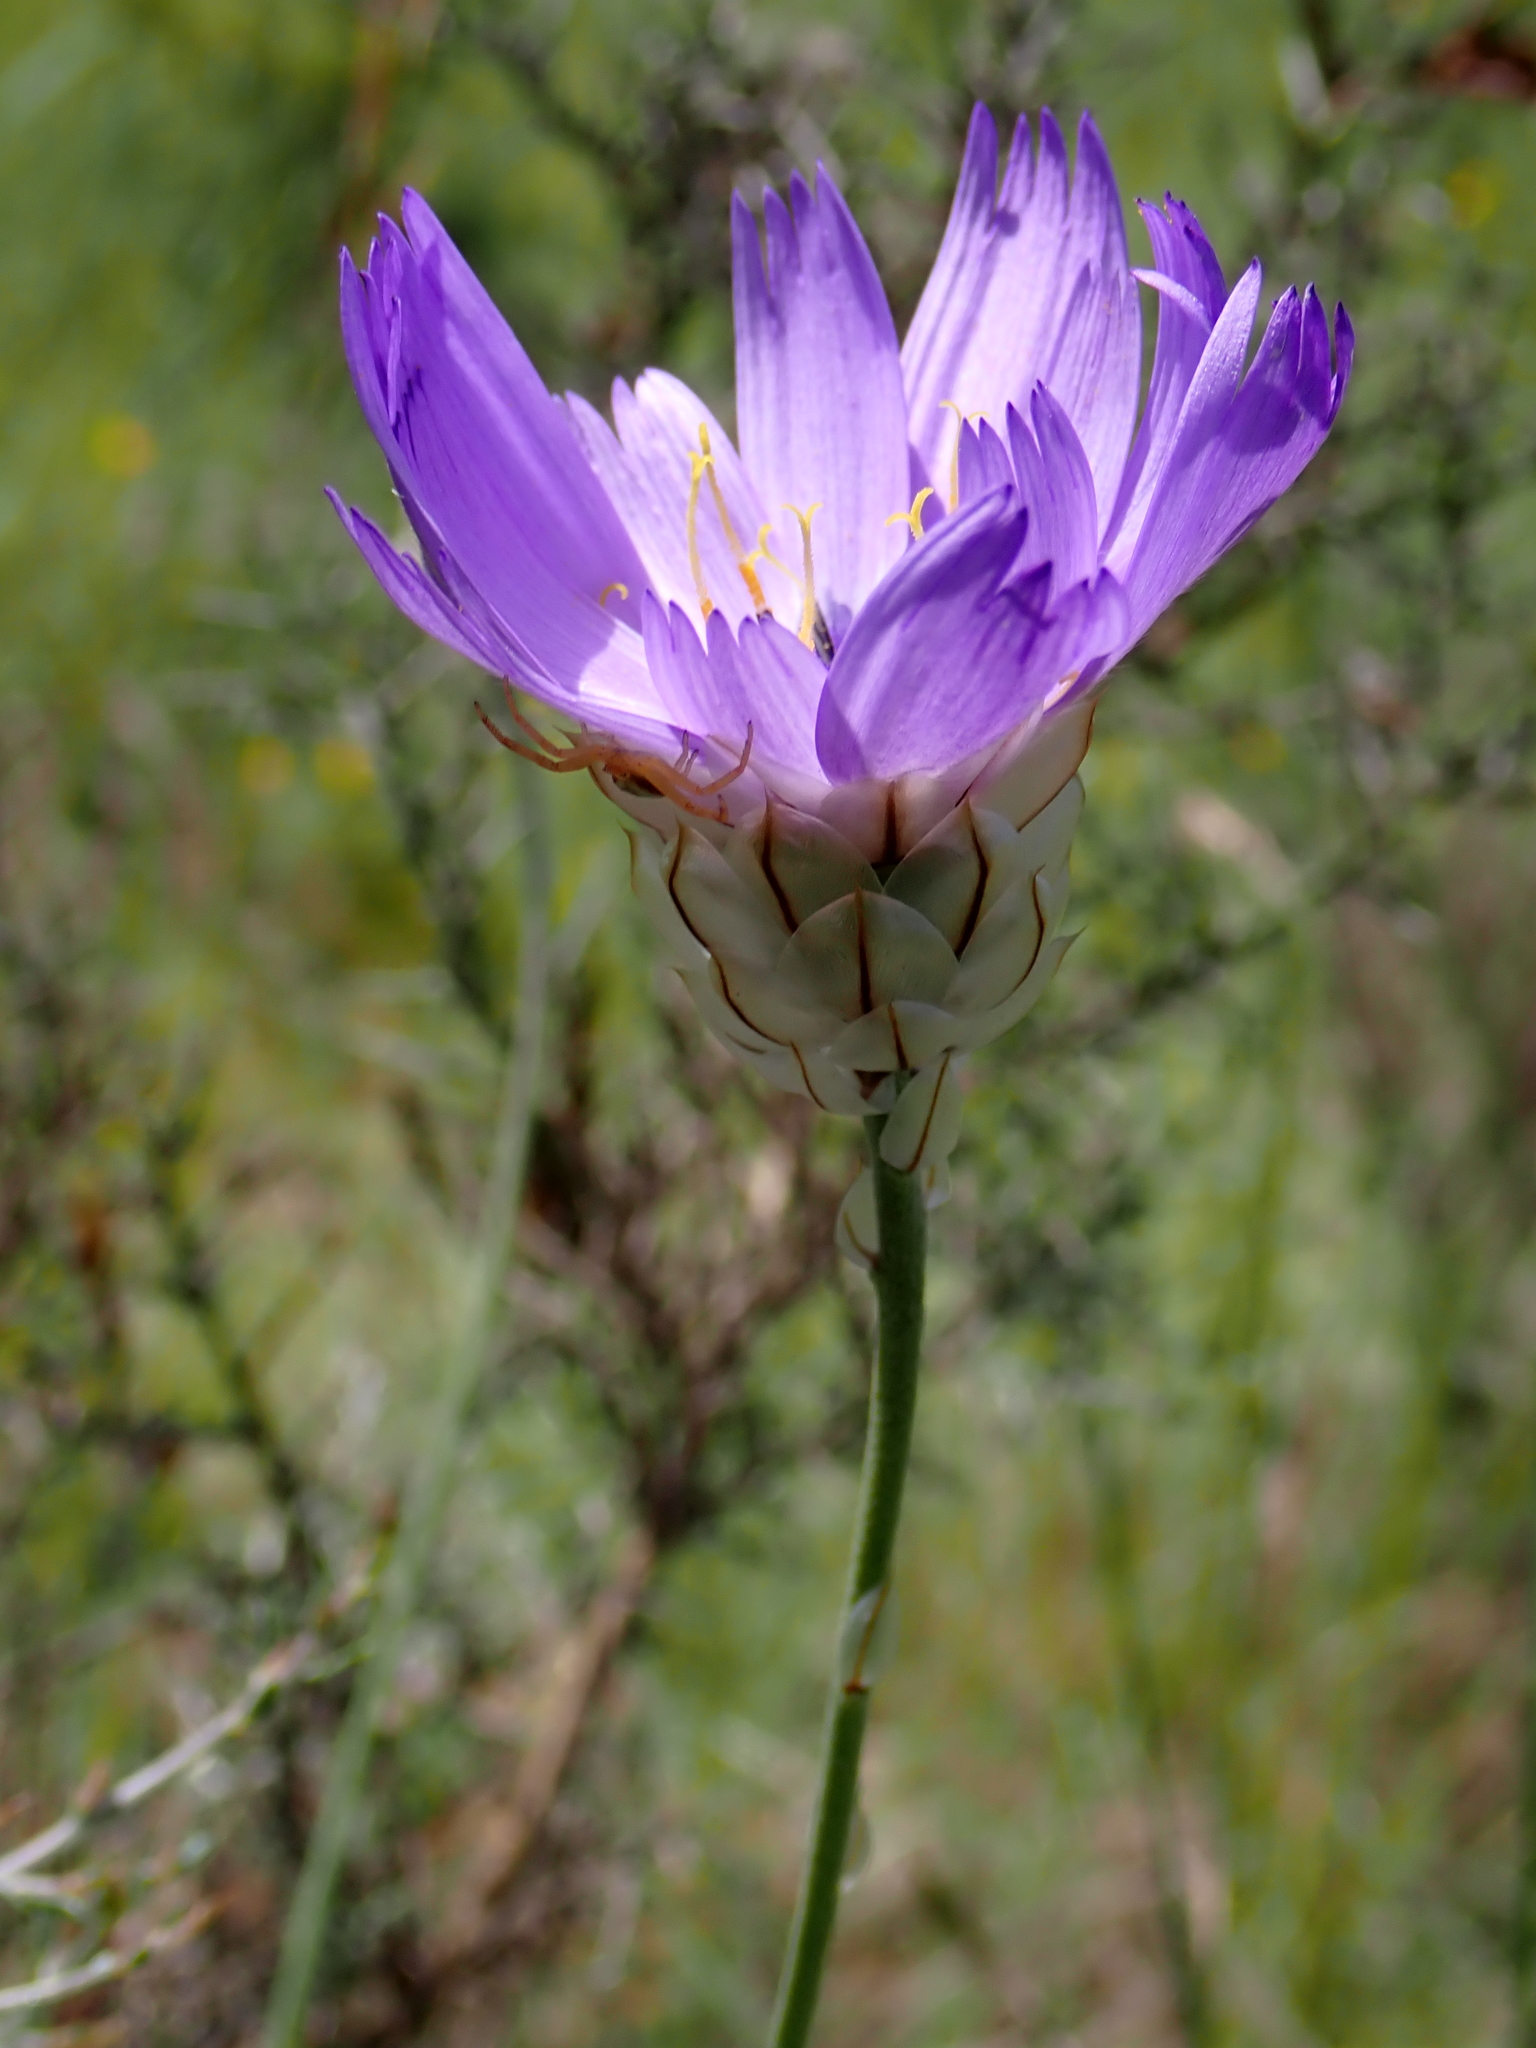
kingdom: Plantae
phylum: Tracheophyta
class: Magnoliopsida
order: Asterales
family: Asteraceae
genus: Catananche
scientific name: Catananche caerulea
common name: Blue cupidone
